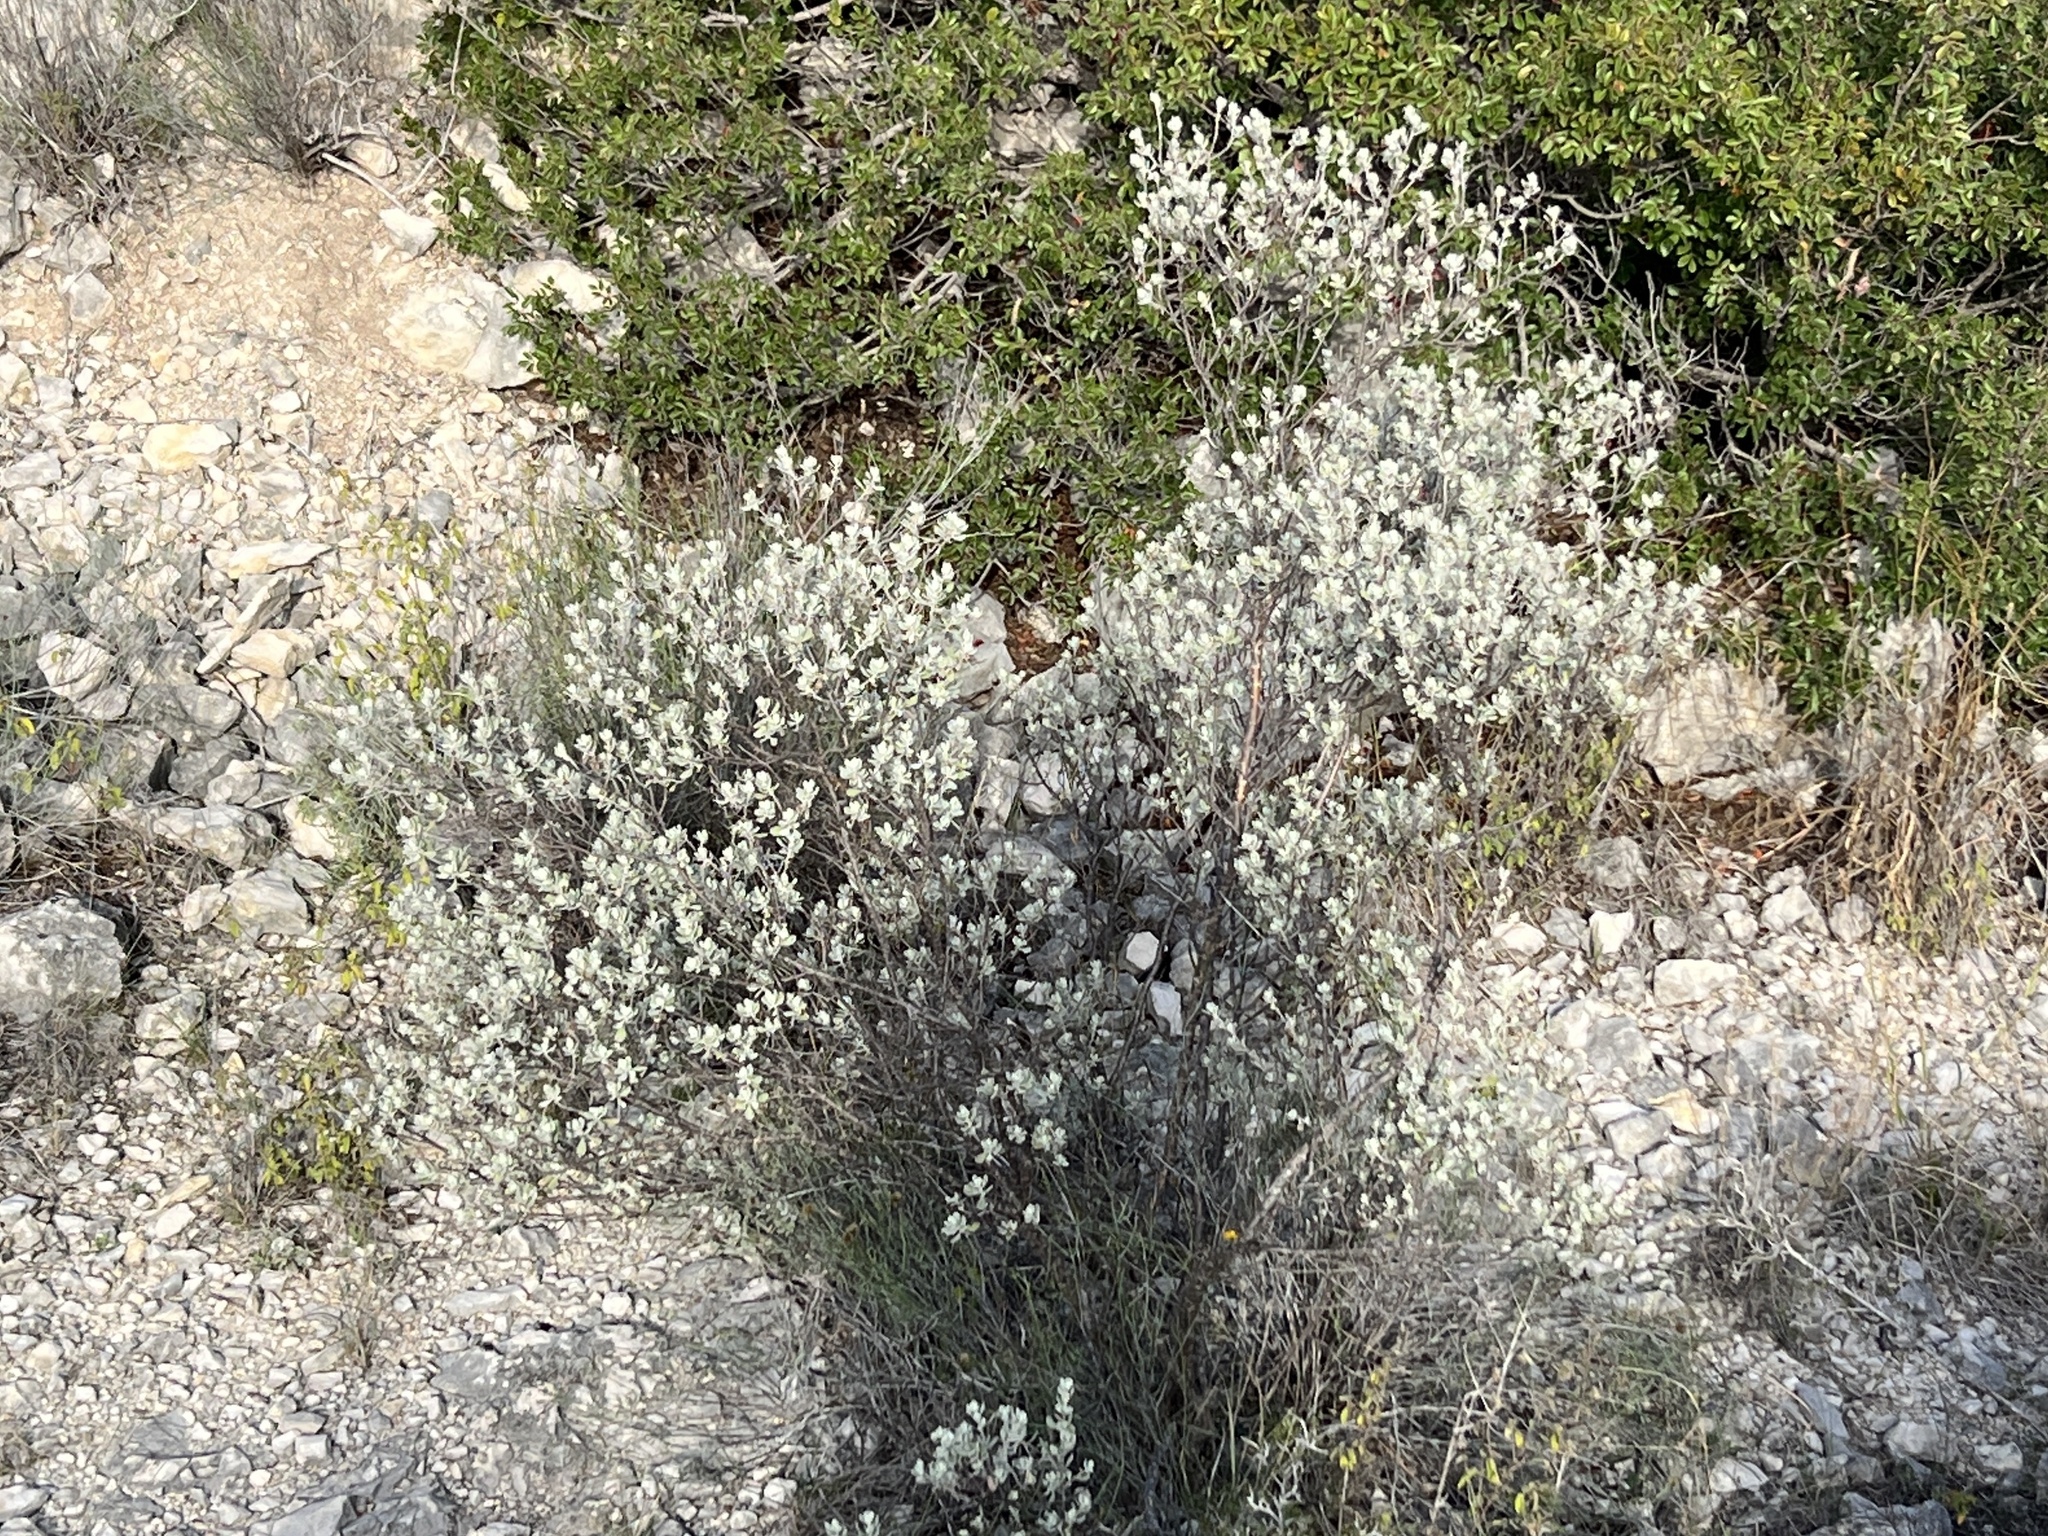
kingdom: Plantae
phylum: Tracheophyta
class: Magnoliopsida
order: Lamiales
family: Scrophulariaceae
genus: Leucophyllum
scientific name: Leucophyllum frutescens
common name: Texas silverleaf
